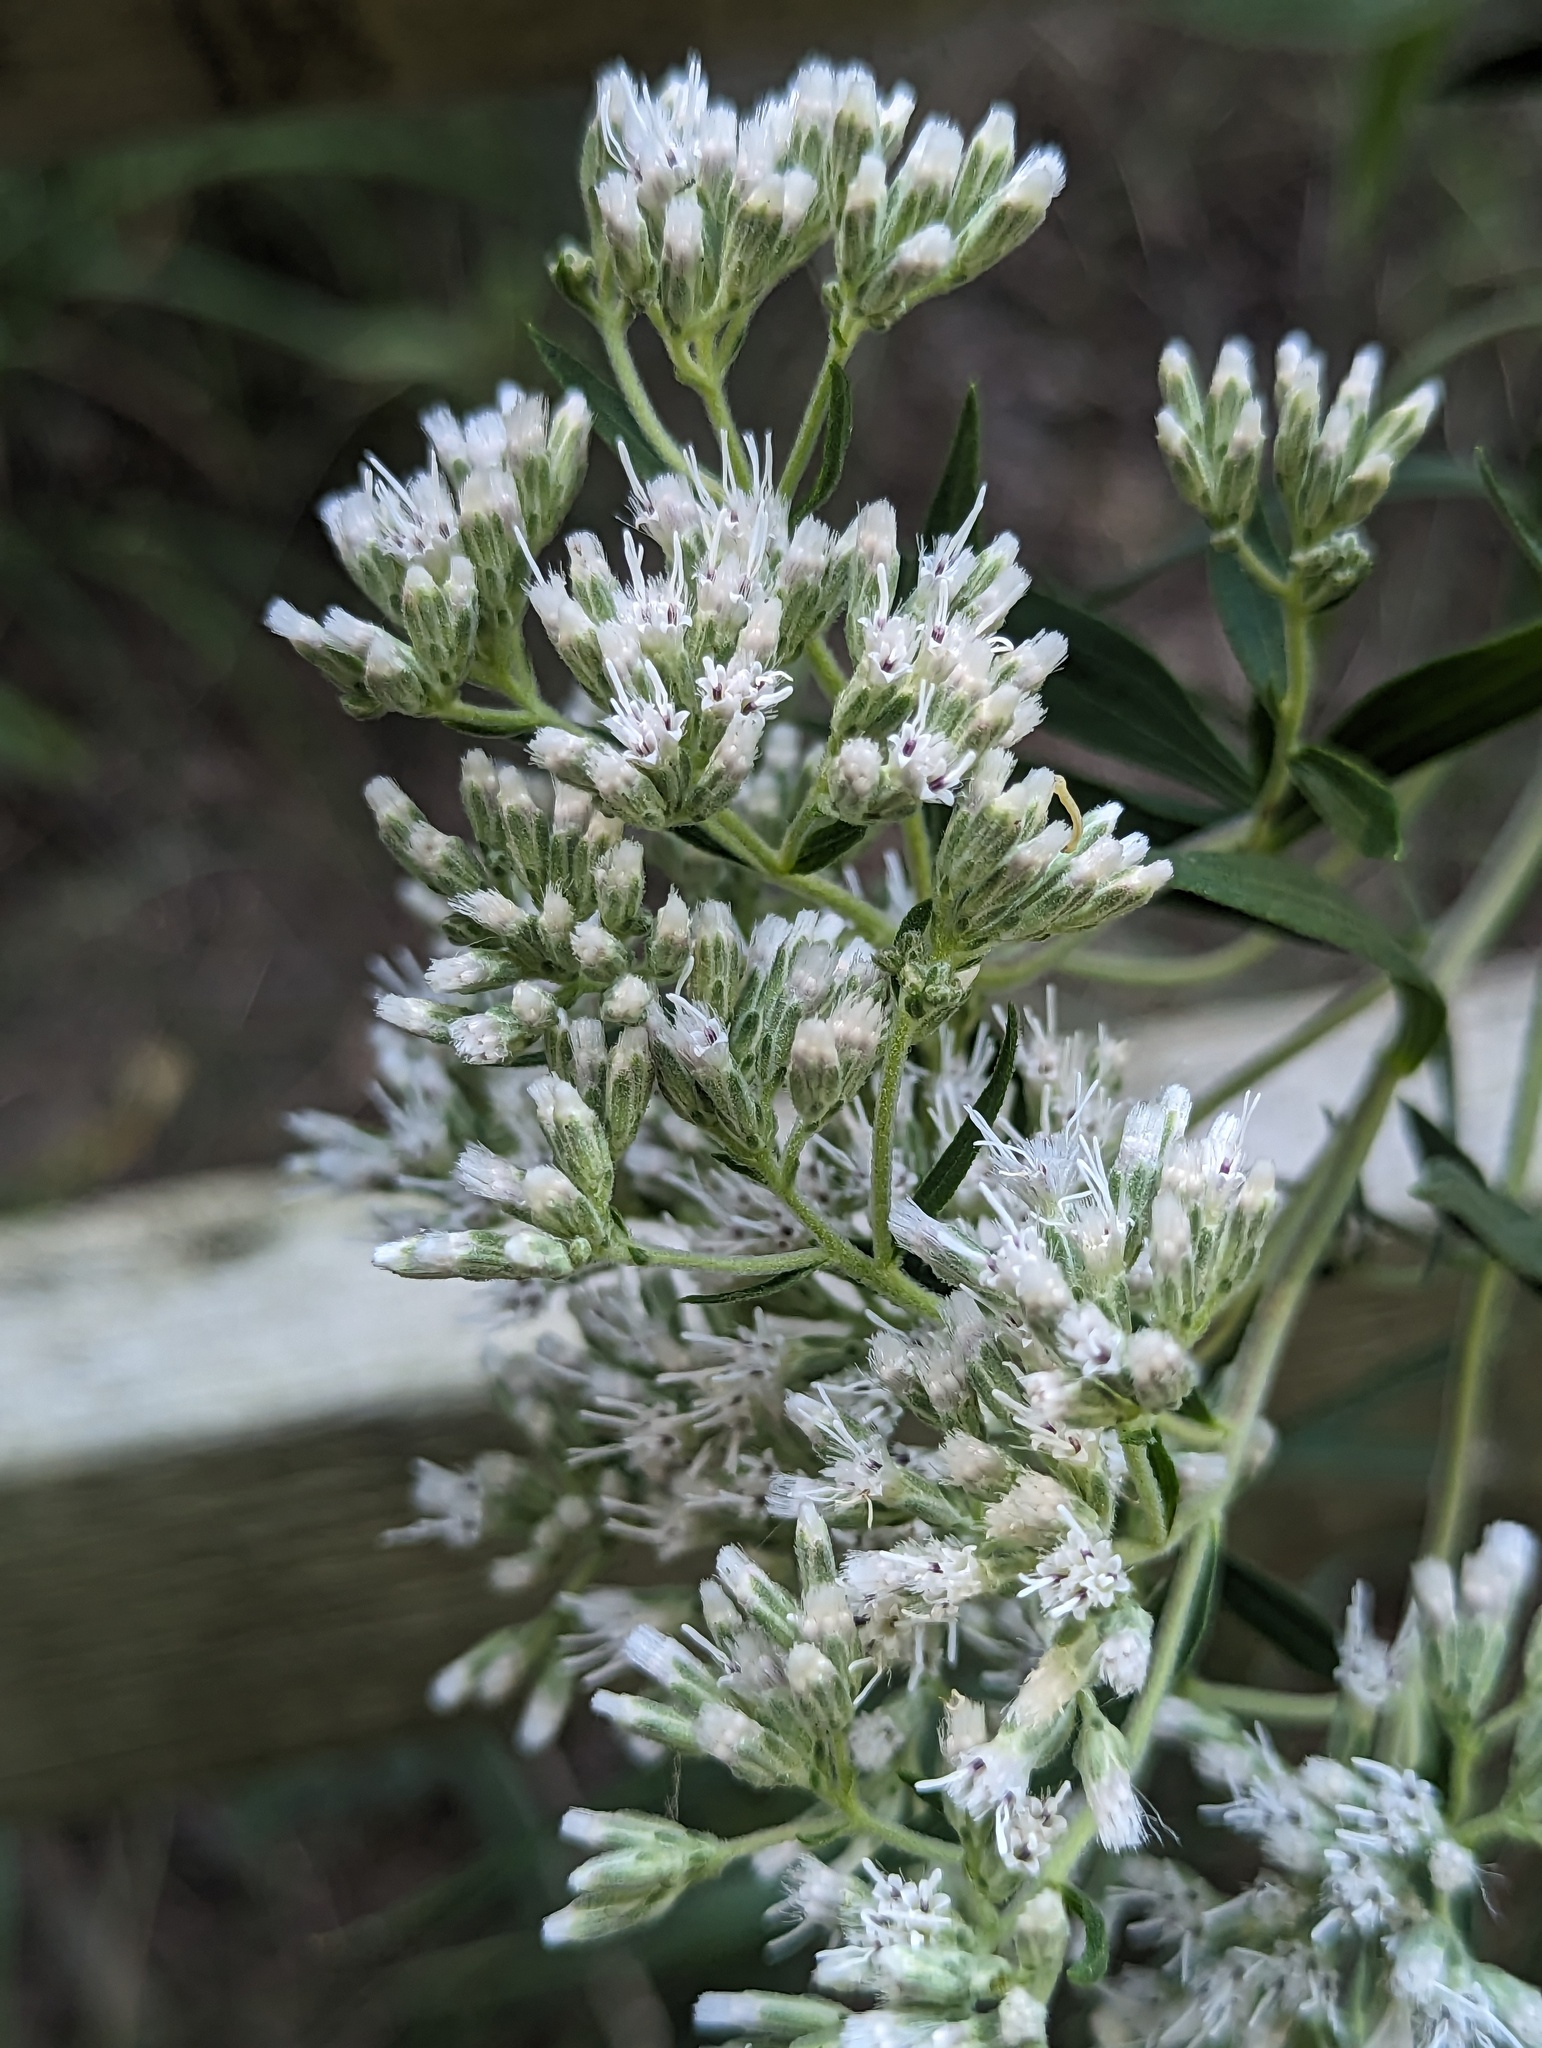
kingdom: Plantae
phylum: Tracheophyta
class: Magnoliopsida
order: Asterales
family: Asteraceae
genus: Eupatorium
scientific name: Eupatorium altissimum
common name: Tall thoroughwort
